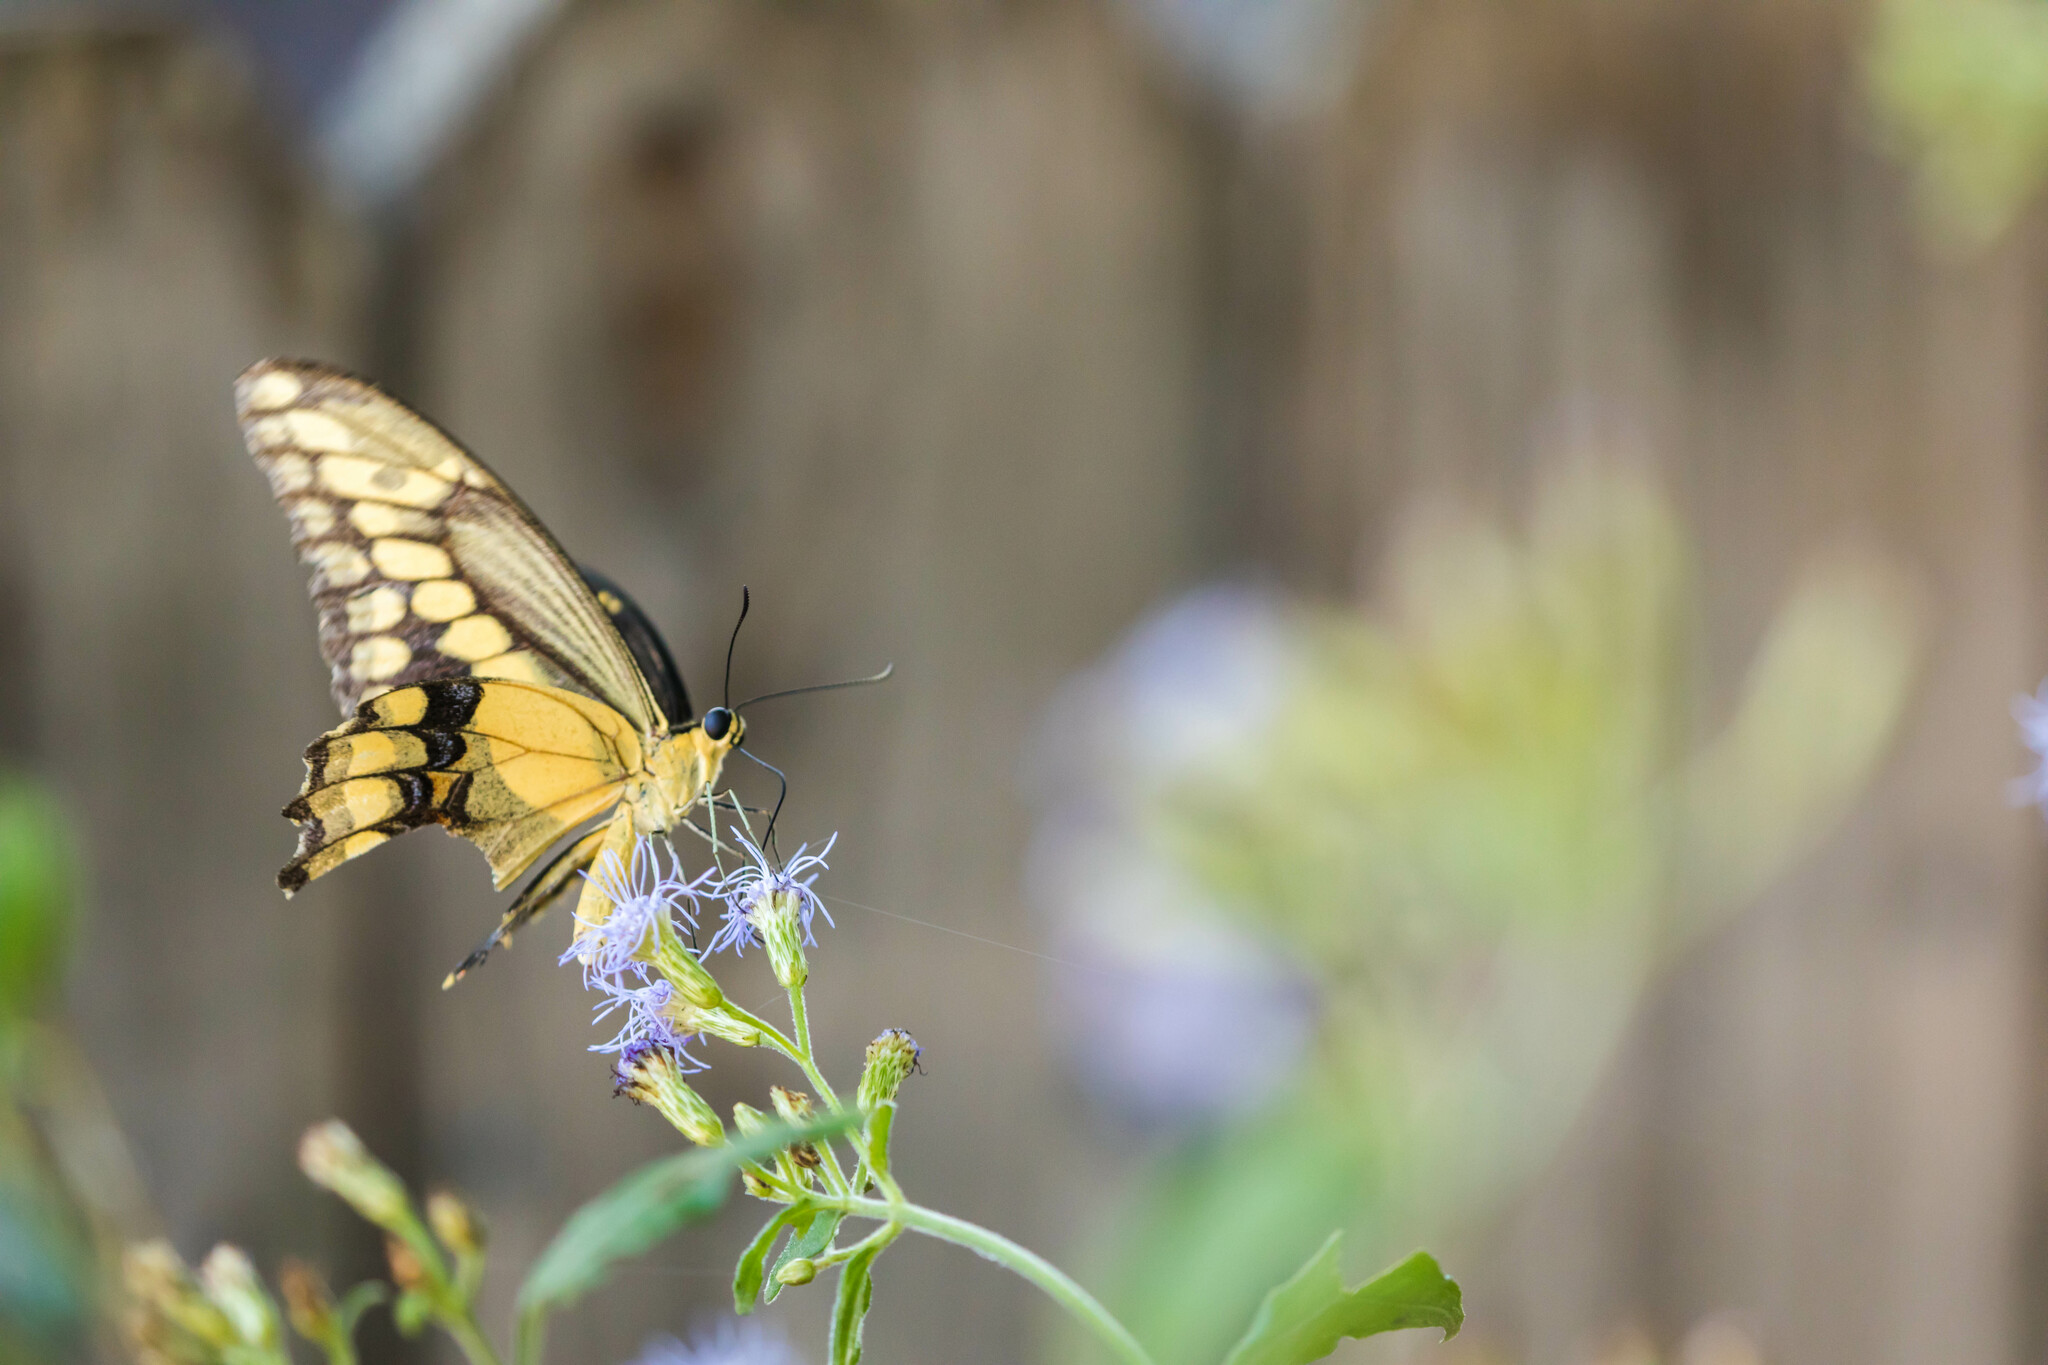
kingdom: Animalia
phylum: Arthropoda
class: Insecta
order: Lepidoptera
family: Papilionidae
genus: Papilio
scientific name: Papilio rumiko
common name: Western giant swallowtail
